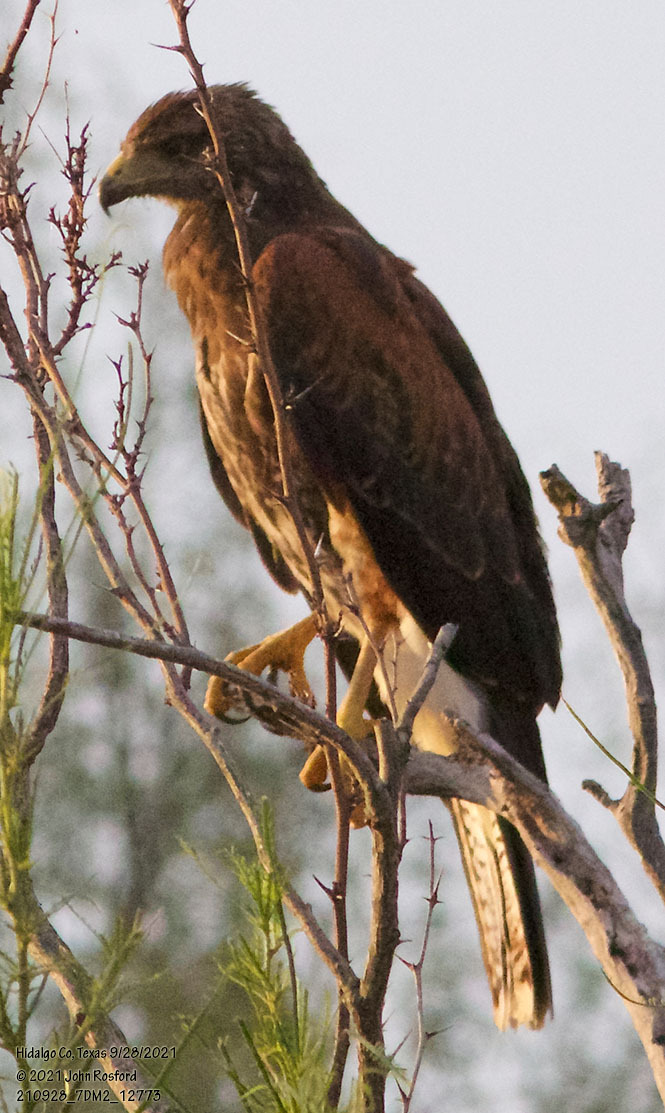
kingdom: Animalia
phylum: Chordata
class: Aves
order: Accipitriformes
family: Accipitridae
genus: Parabuteo
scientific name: Parabuteo unicinctus
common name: Harris's hawk
